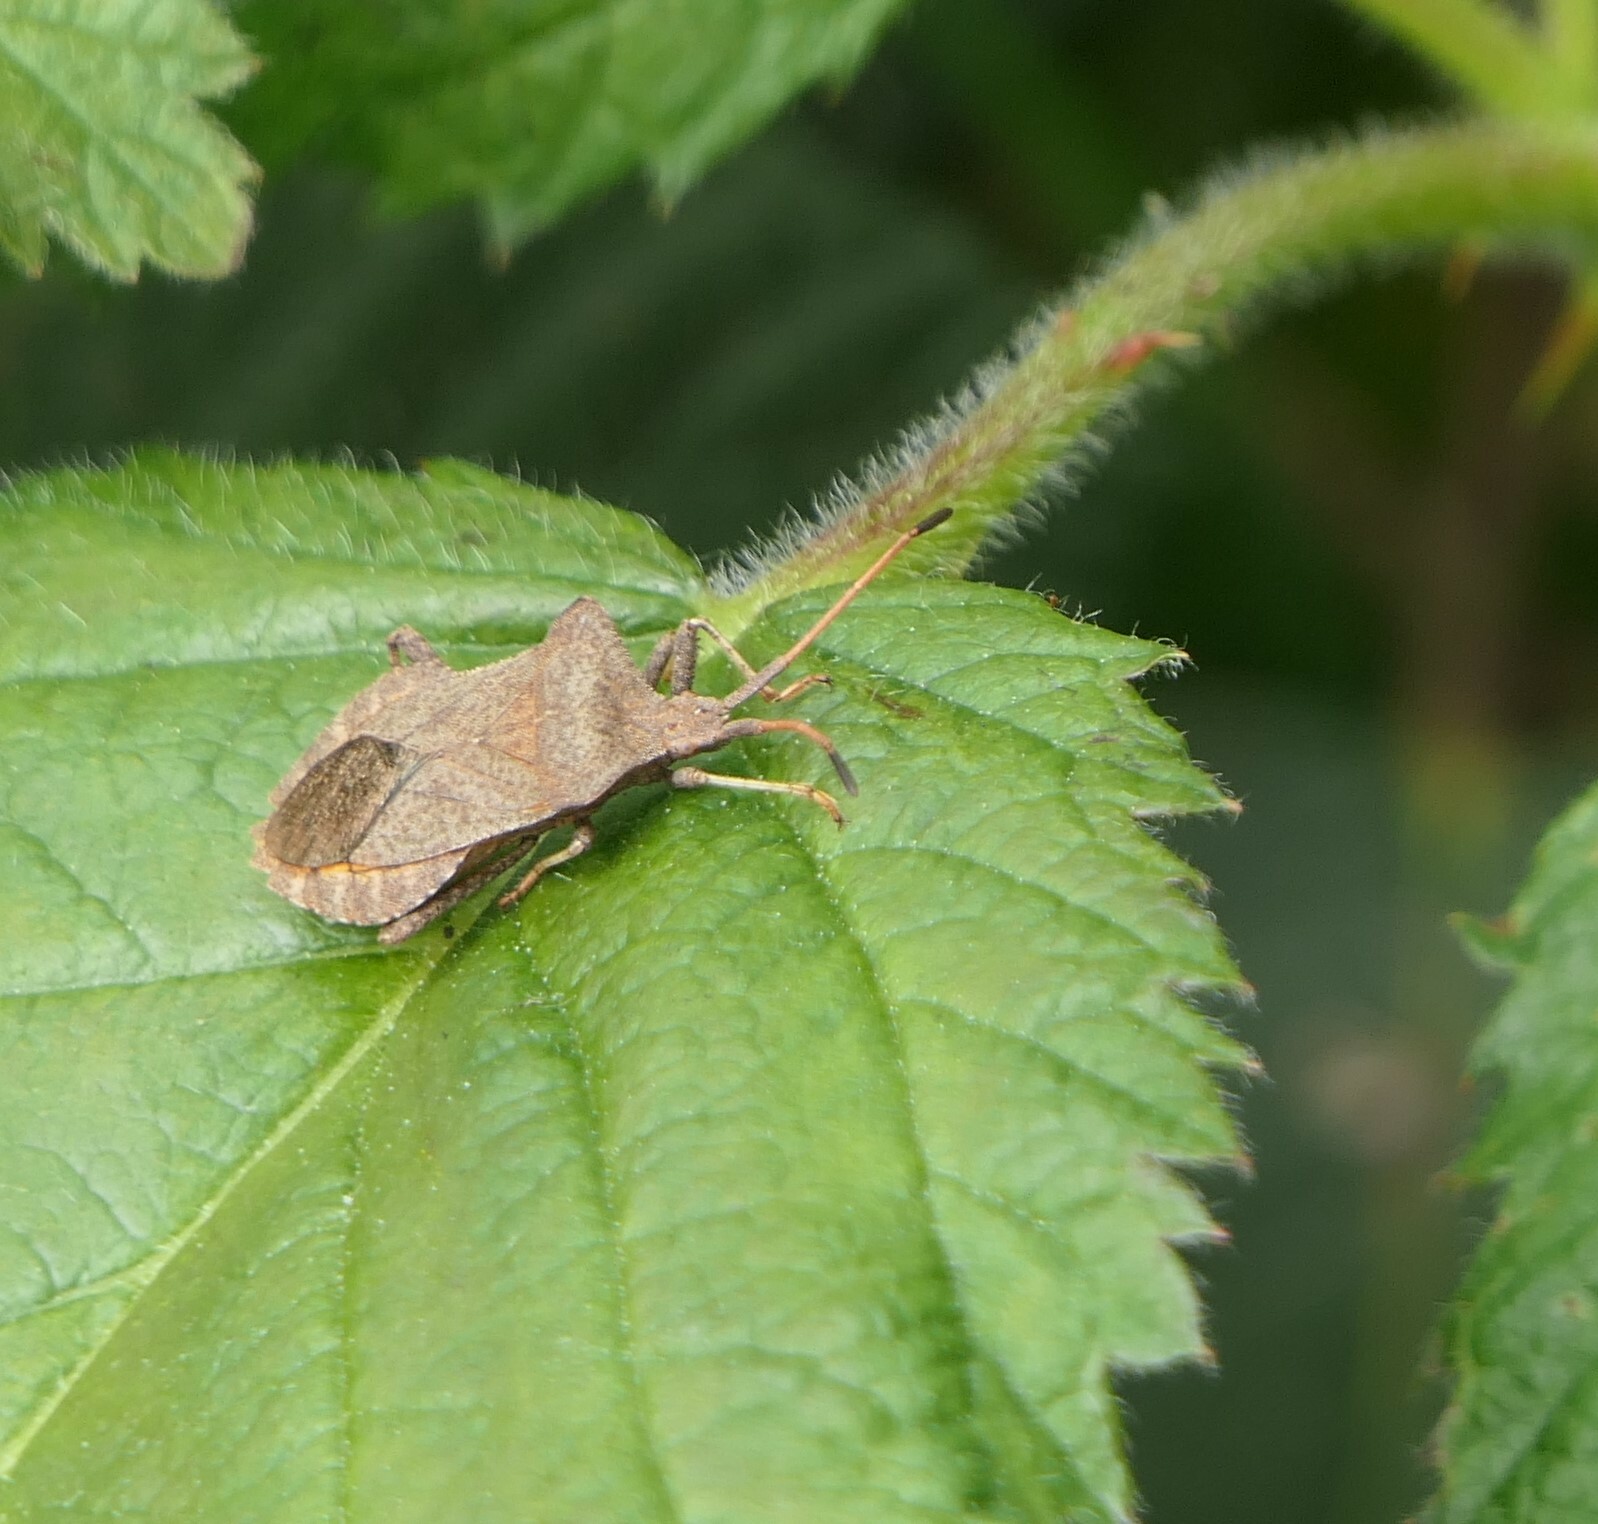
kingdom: Animalia
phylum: Arthropoda
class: Insecta
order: Hemiptera
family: Coreidae
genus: Coreus
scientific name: Coreus marginatus
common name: Dock bug
